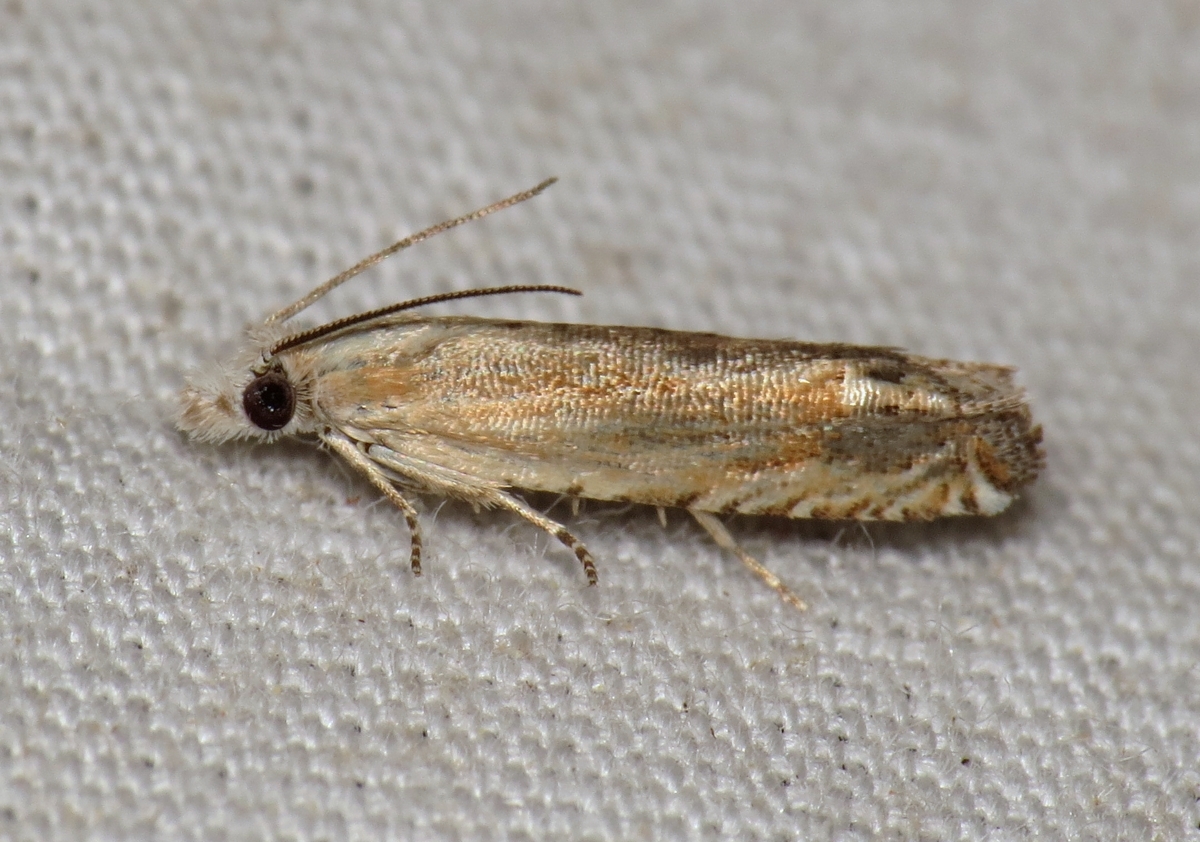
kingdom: Animalia
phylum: Arthropoda
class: Insecta
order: Lepidoptera
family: Tortricidae
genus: Pelochrista
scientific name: Pelochrista cataclystiana
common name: Goldenrod pelochrista moth
